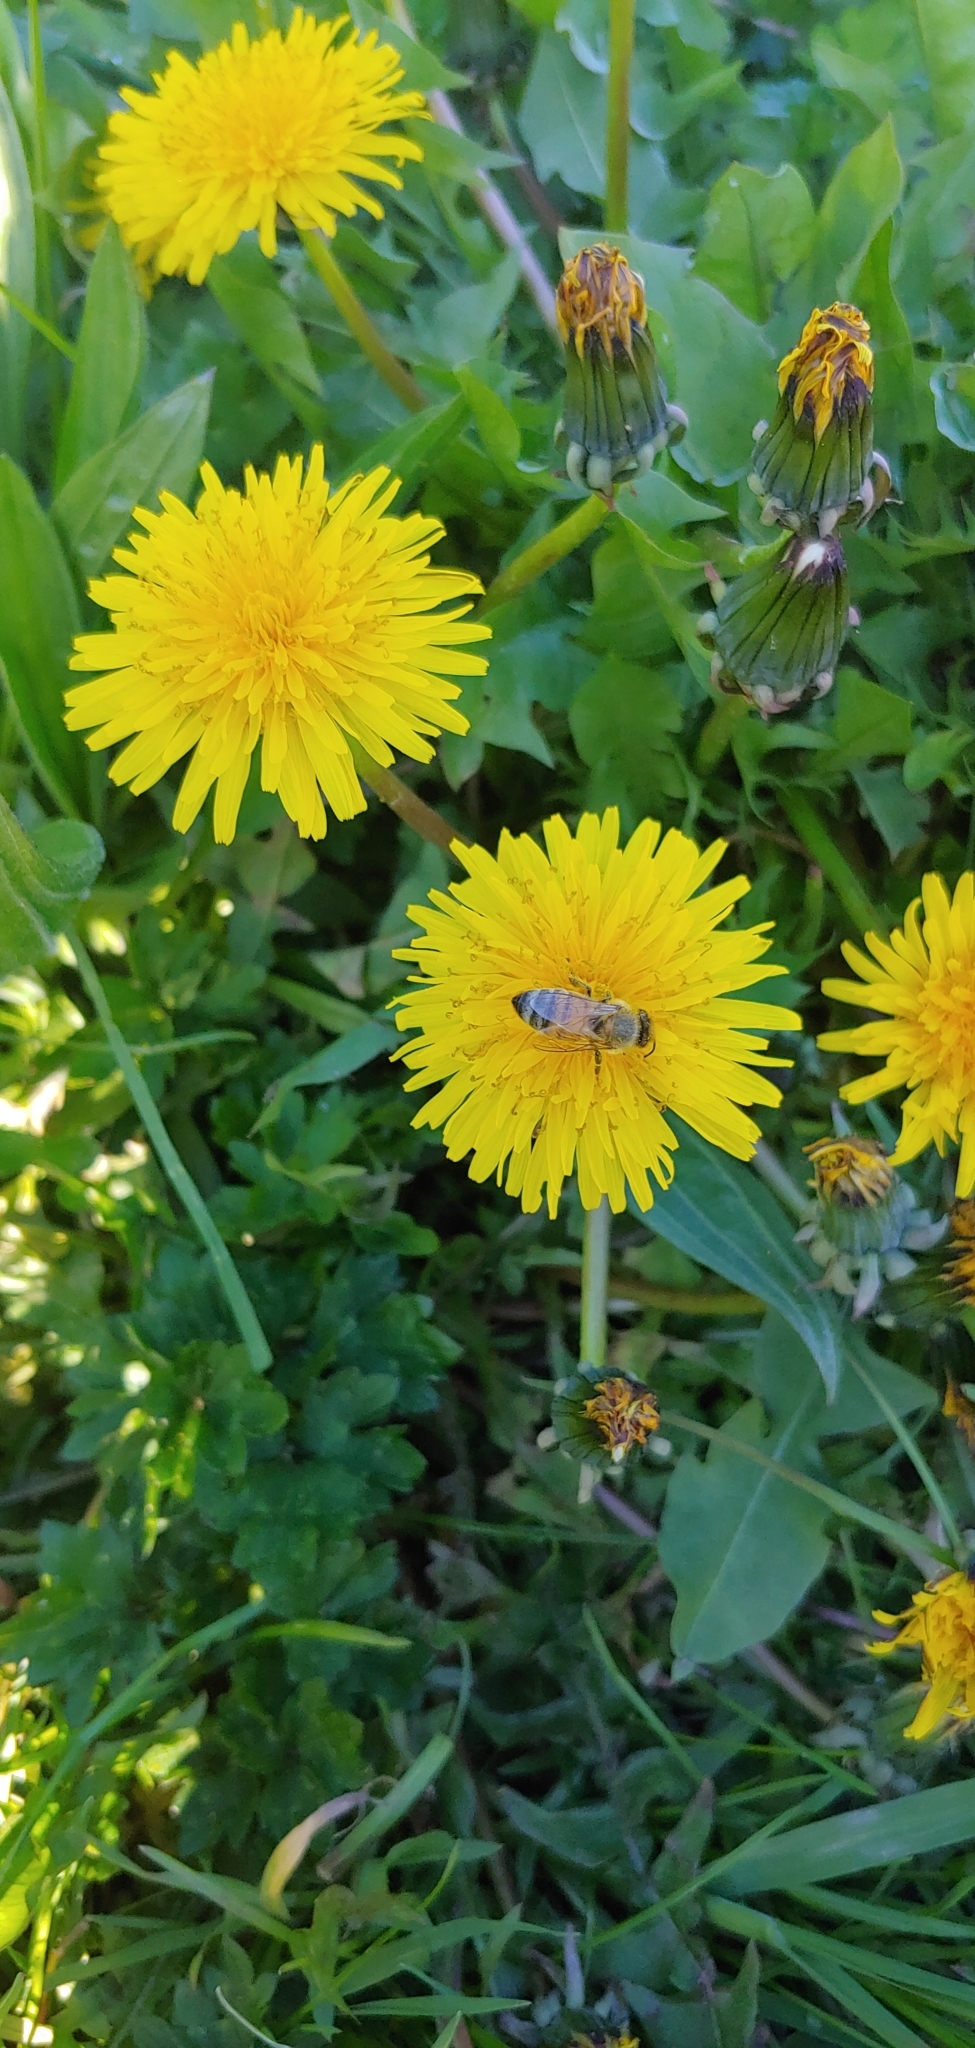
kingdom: Animalia
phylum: Arthropoda
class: Insecta
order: Hymenoptera
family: Apidae
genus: Apis
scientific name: Apis mellifera
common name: Honey bee
